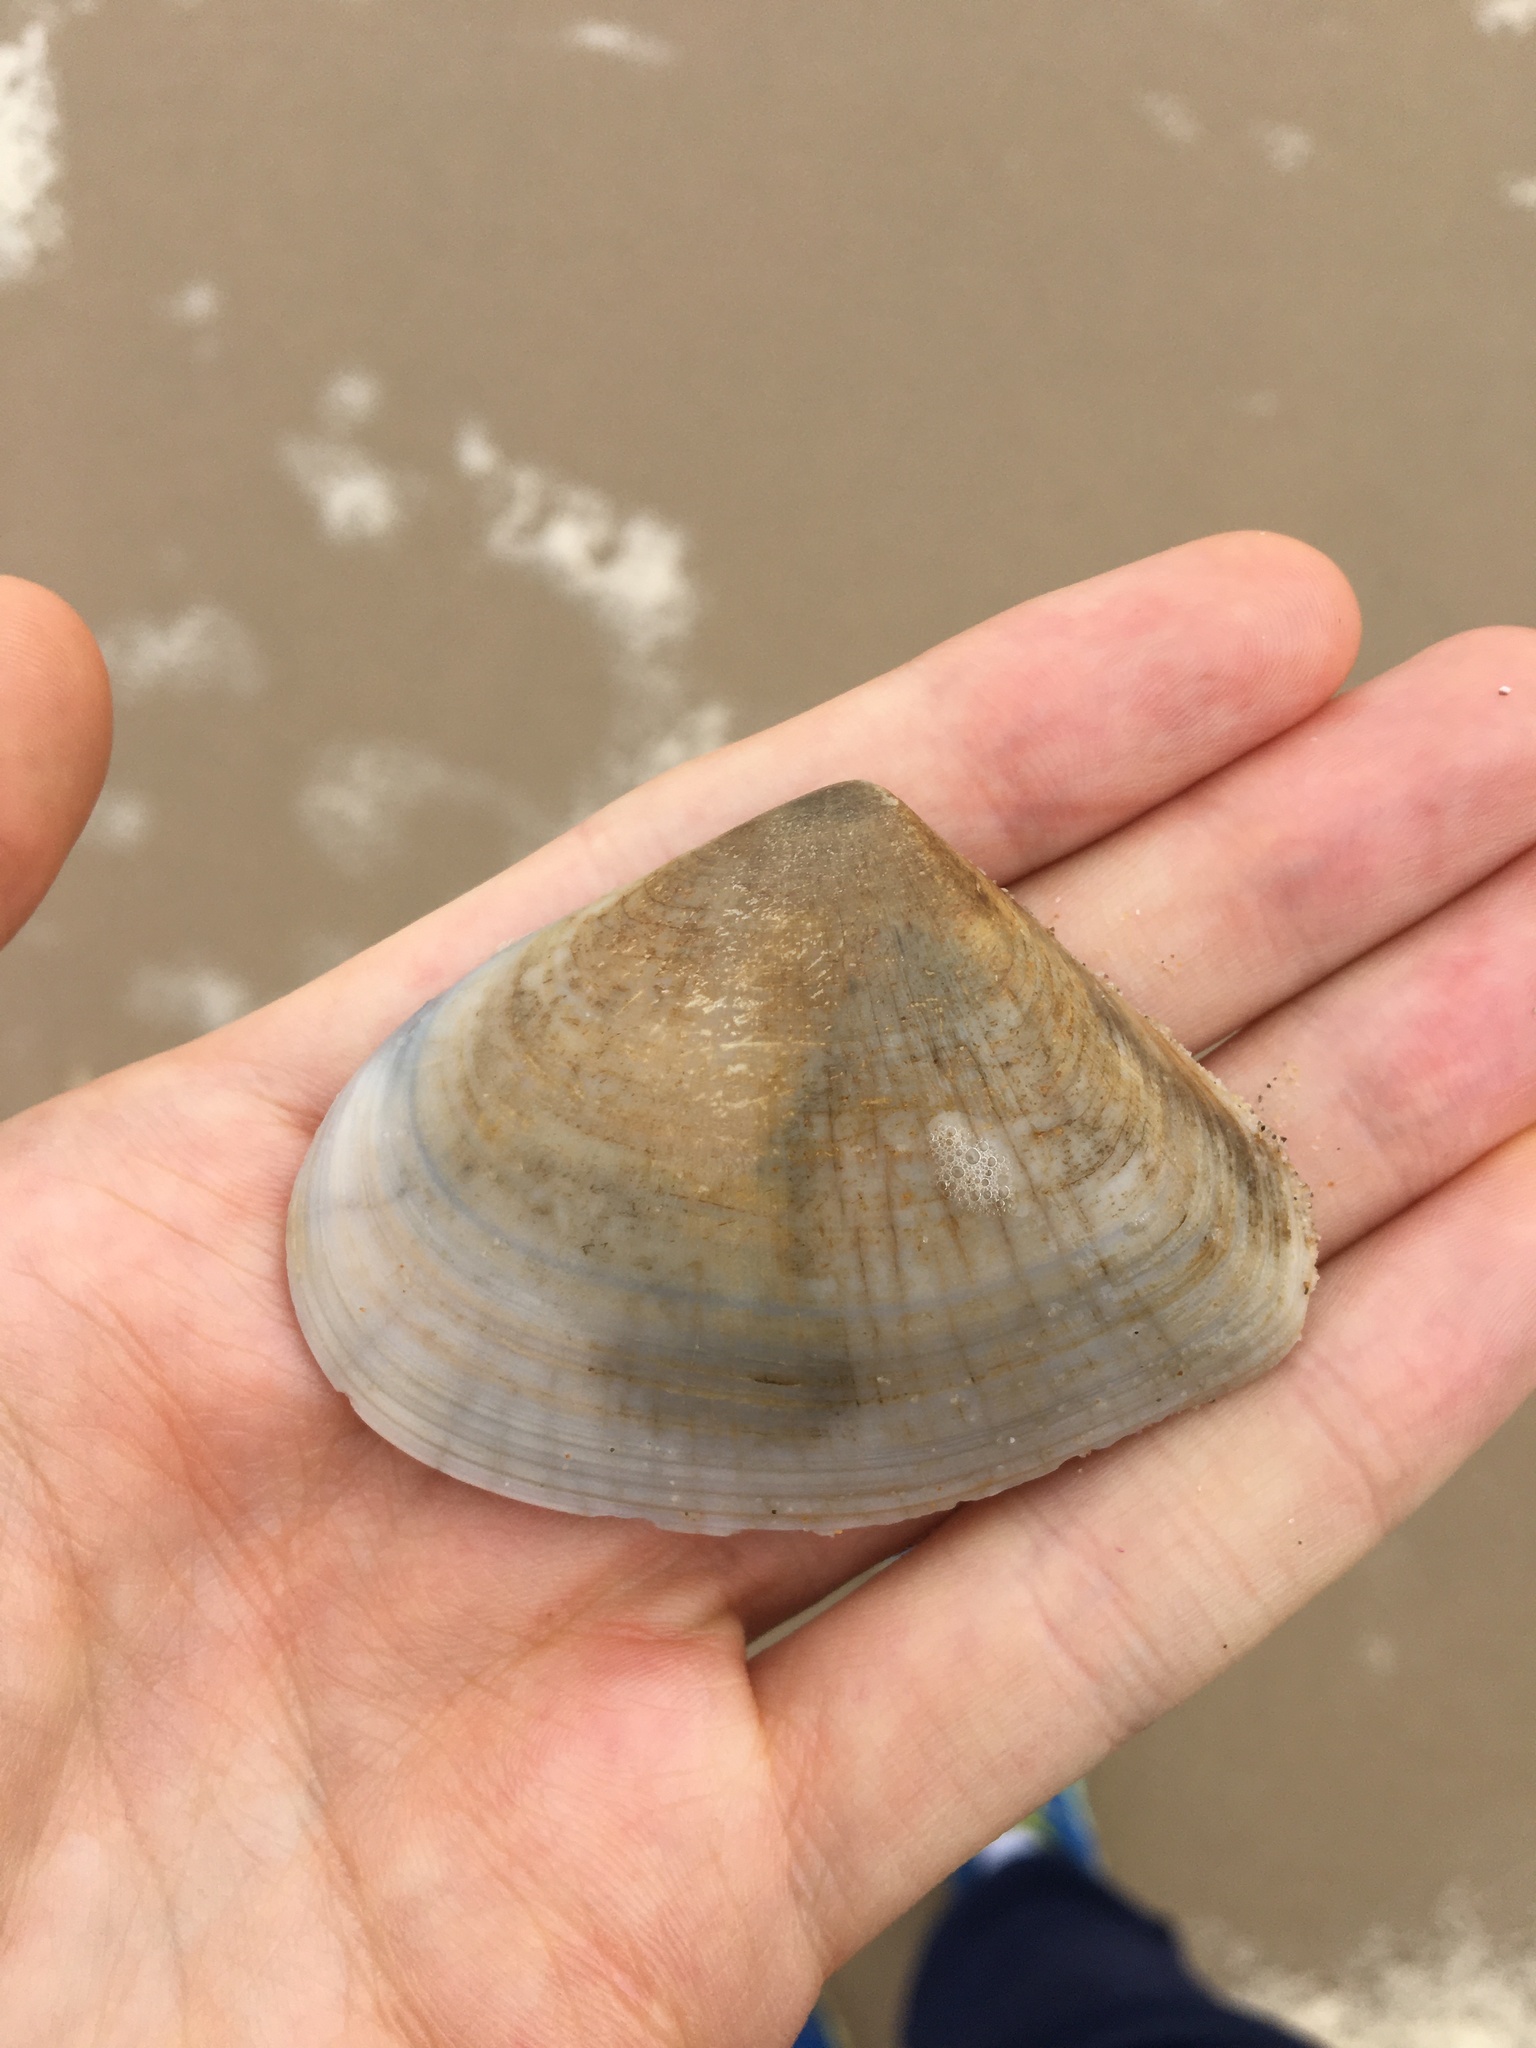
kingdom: Animalia
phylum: Mollusca
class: Bivalvia
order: Cardiida
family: Donacidae
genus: Latona
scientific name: Latona deltoides
